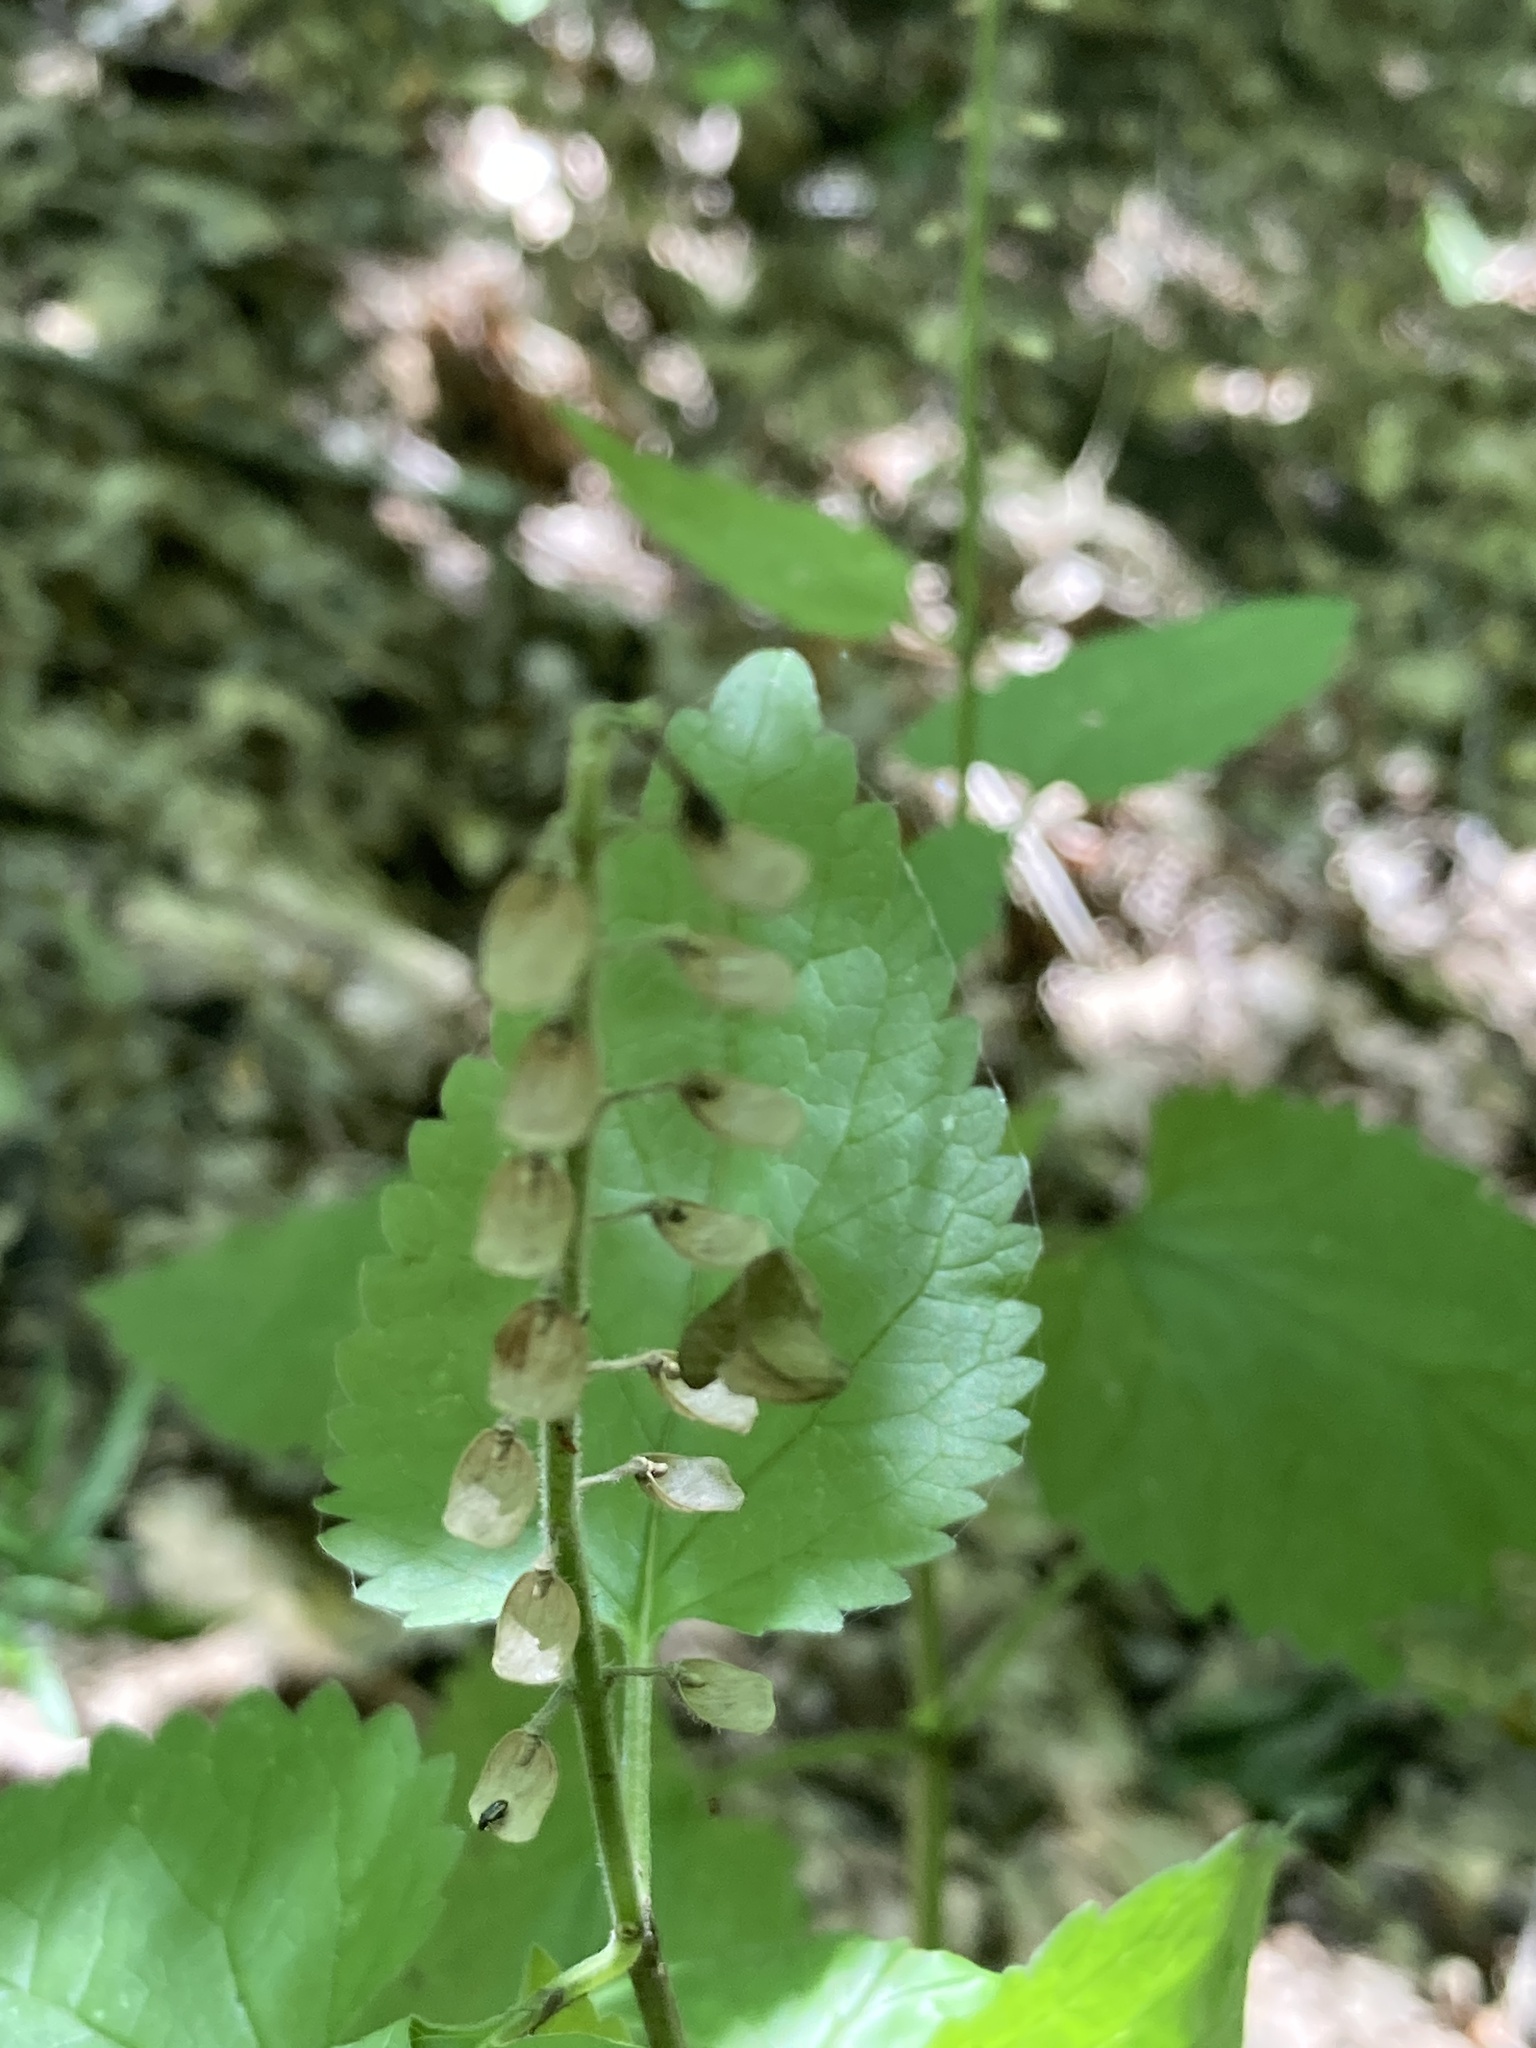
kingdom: Plantae
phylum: Tracheophyta
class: Magnoliopsida
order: Lamiales
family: Lamiaceae
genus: Scutellaria
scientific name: Scutellaria altissima
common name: Somerset skullcap
